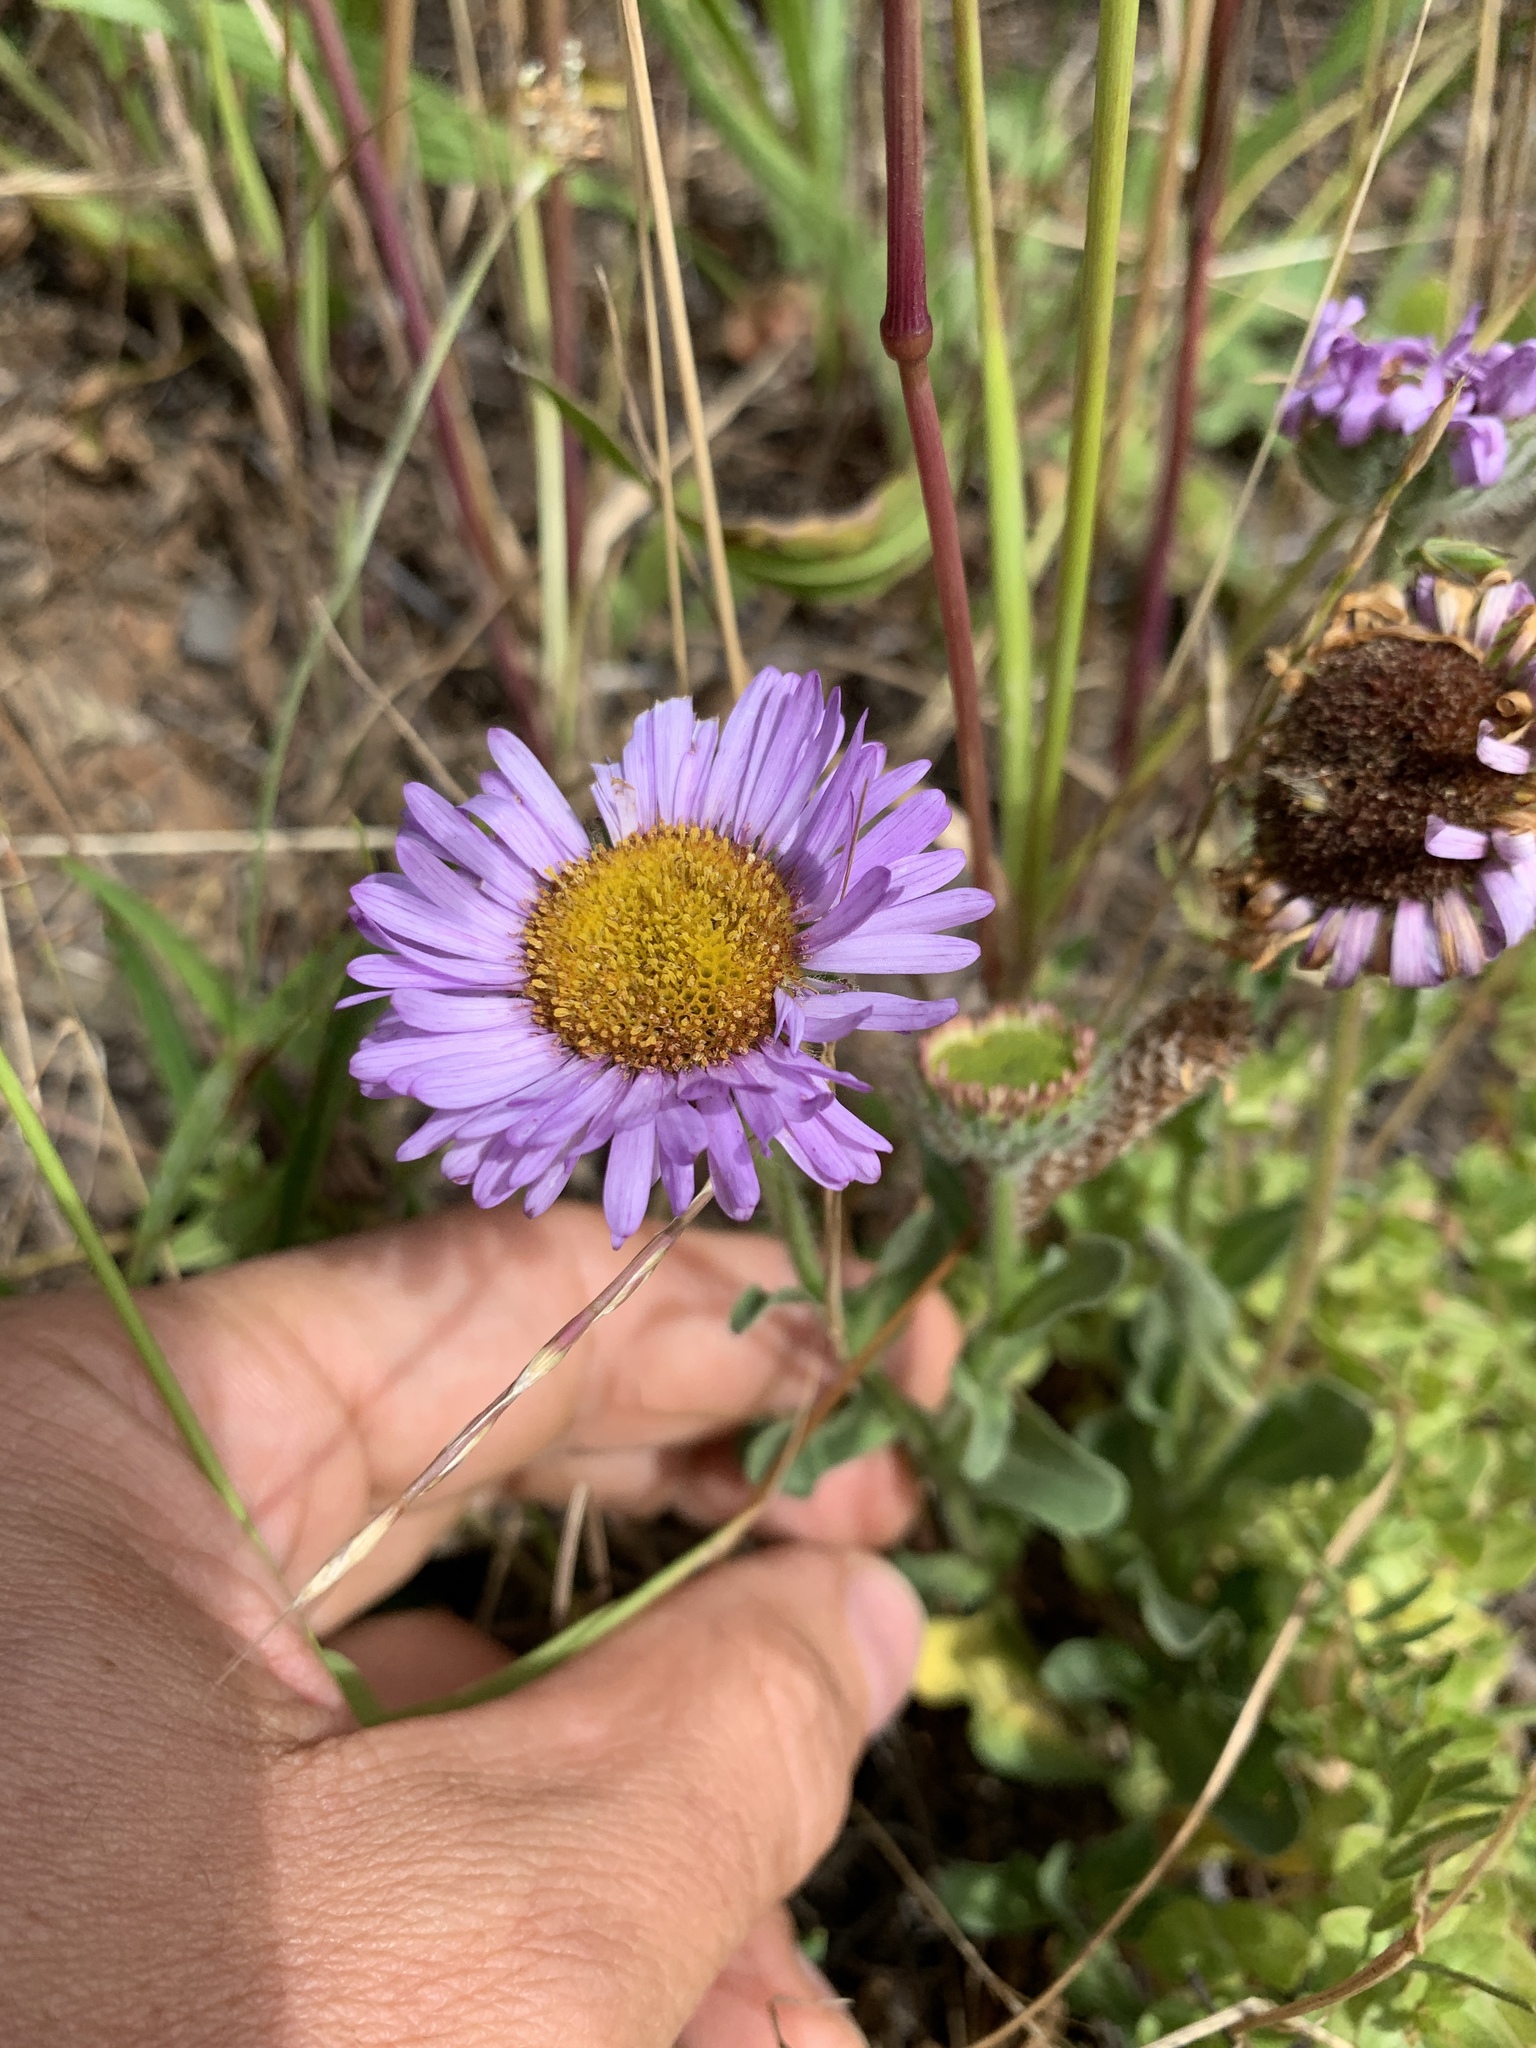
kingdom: Plantae
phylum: Tracheophyta
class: Magnoliopsida
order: Asterales
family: Asteraceae
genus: Erigeron
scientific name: Erigeron glaucus
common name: Seaside daisy
